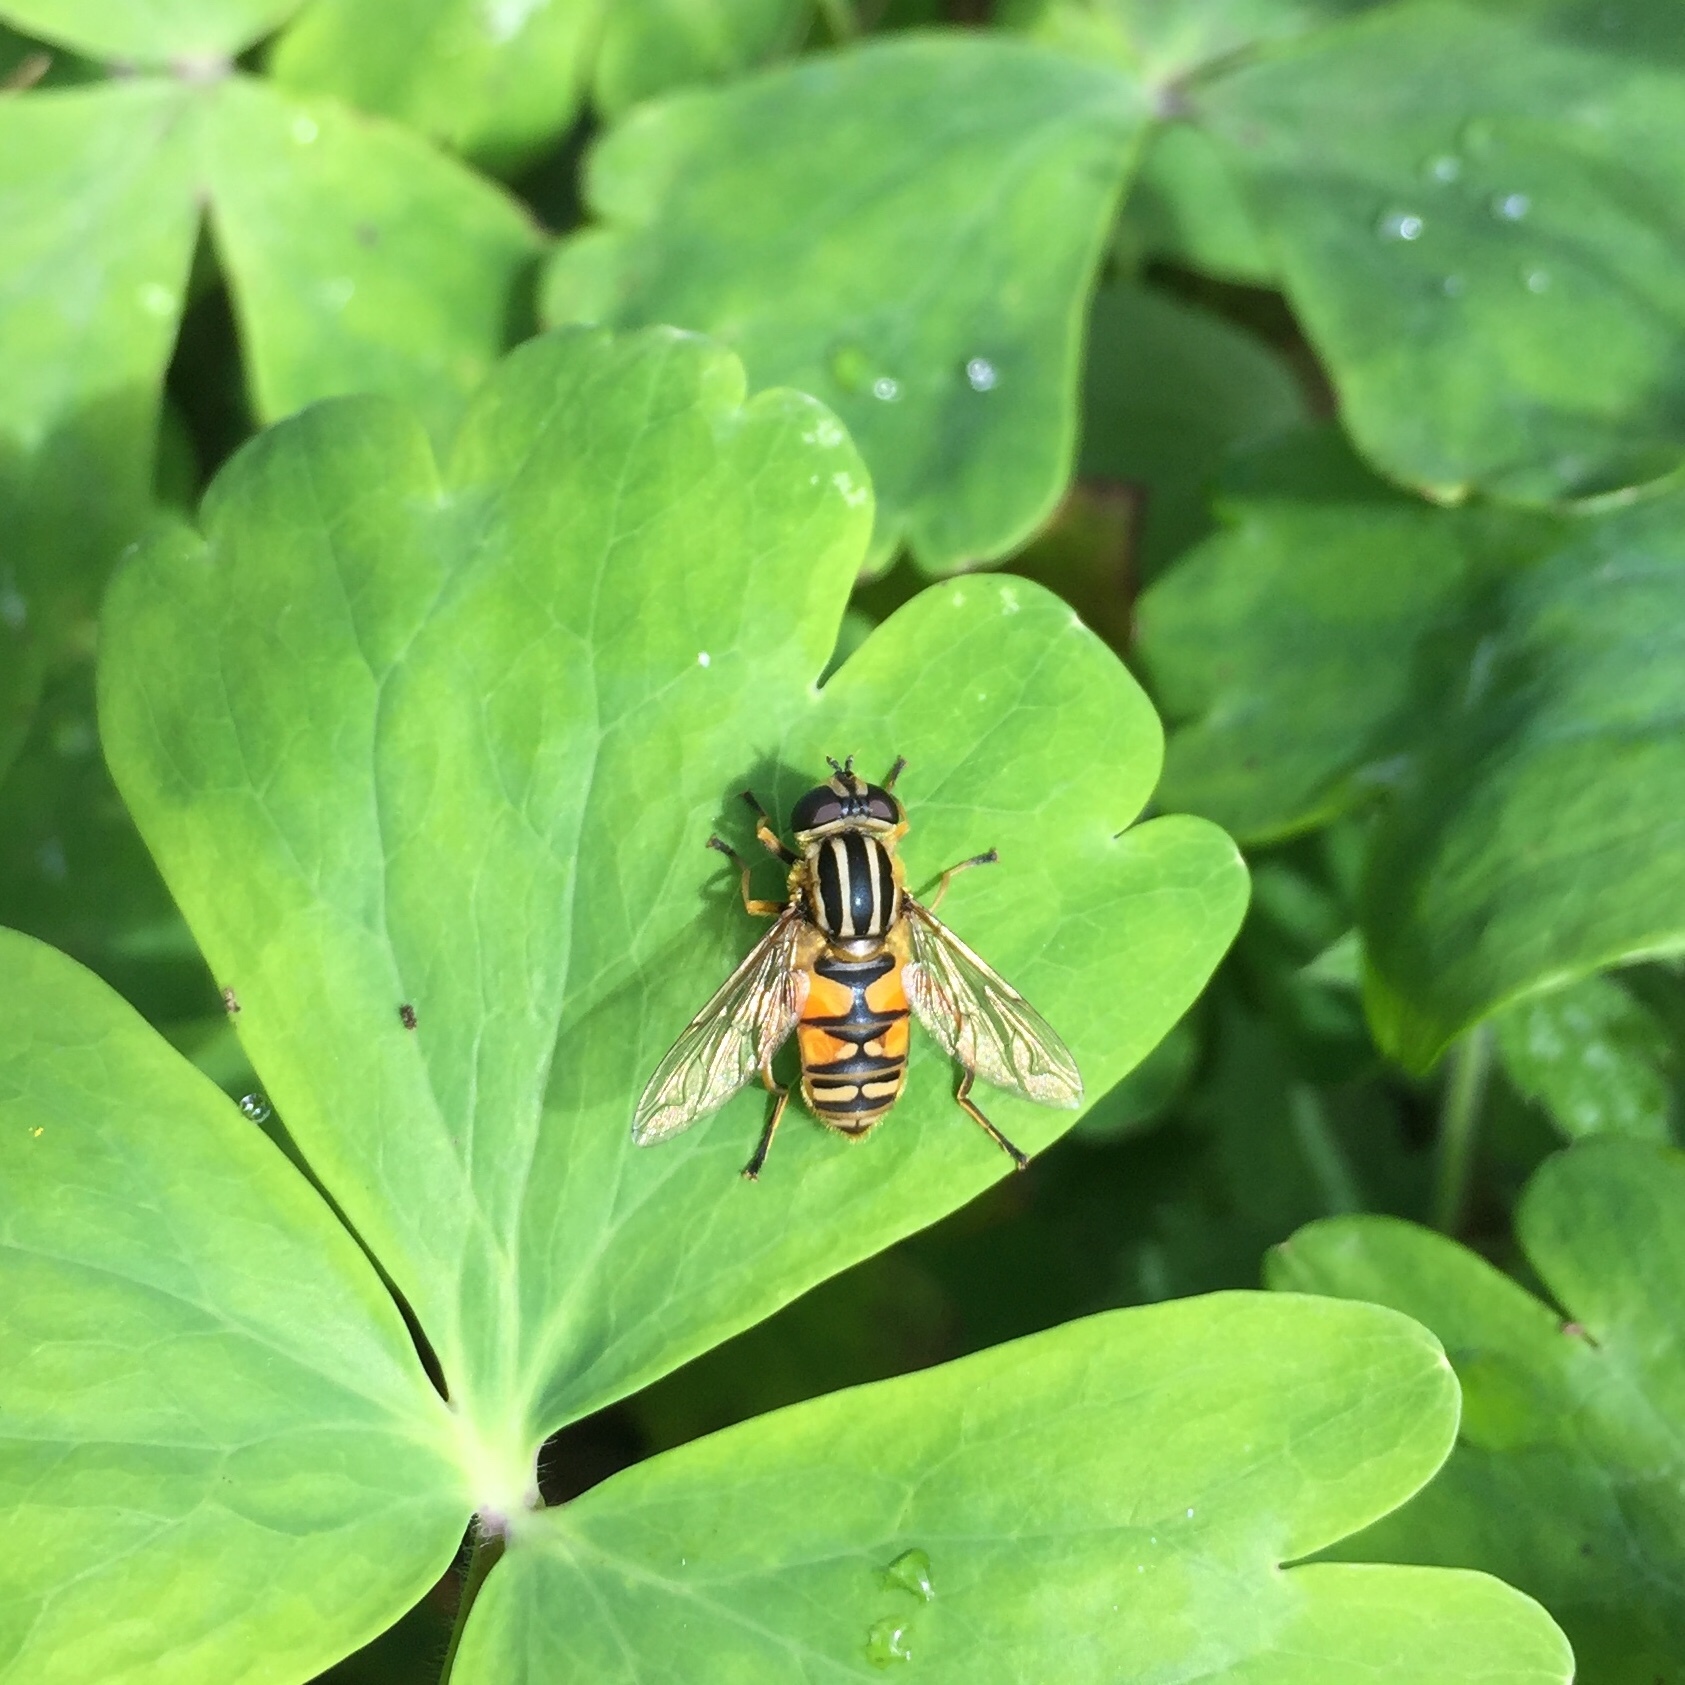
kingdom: Animalia
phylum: Arthropoda
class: Insecta
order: Diptera
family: Syrphidae
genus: Helophilus
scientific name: Helophilus pendulus
